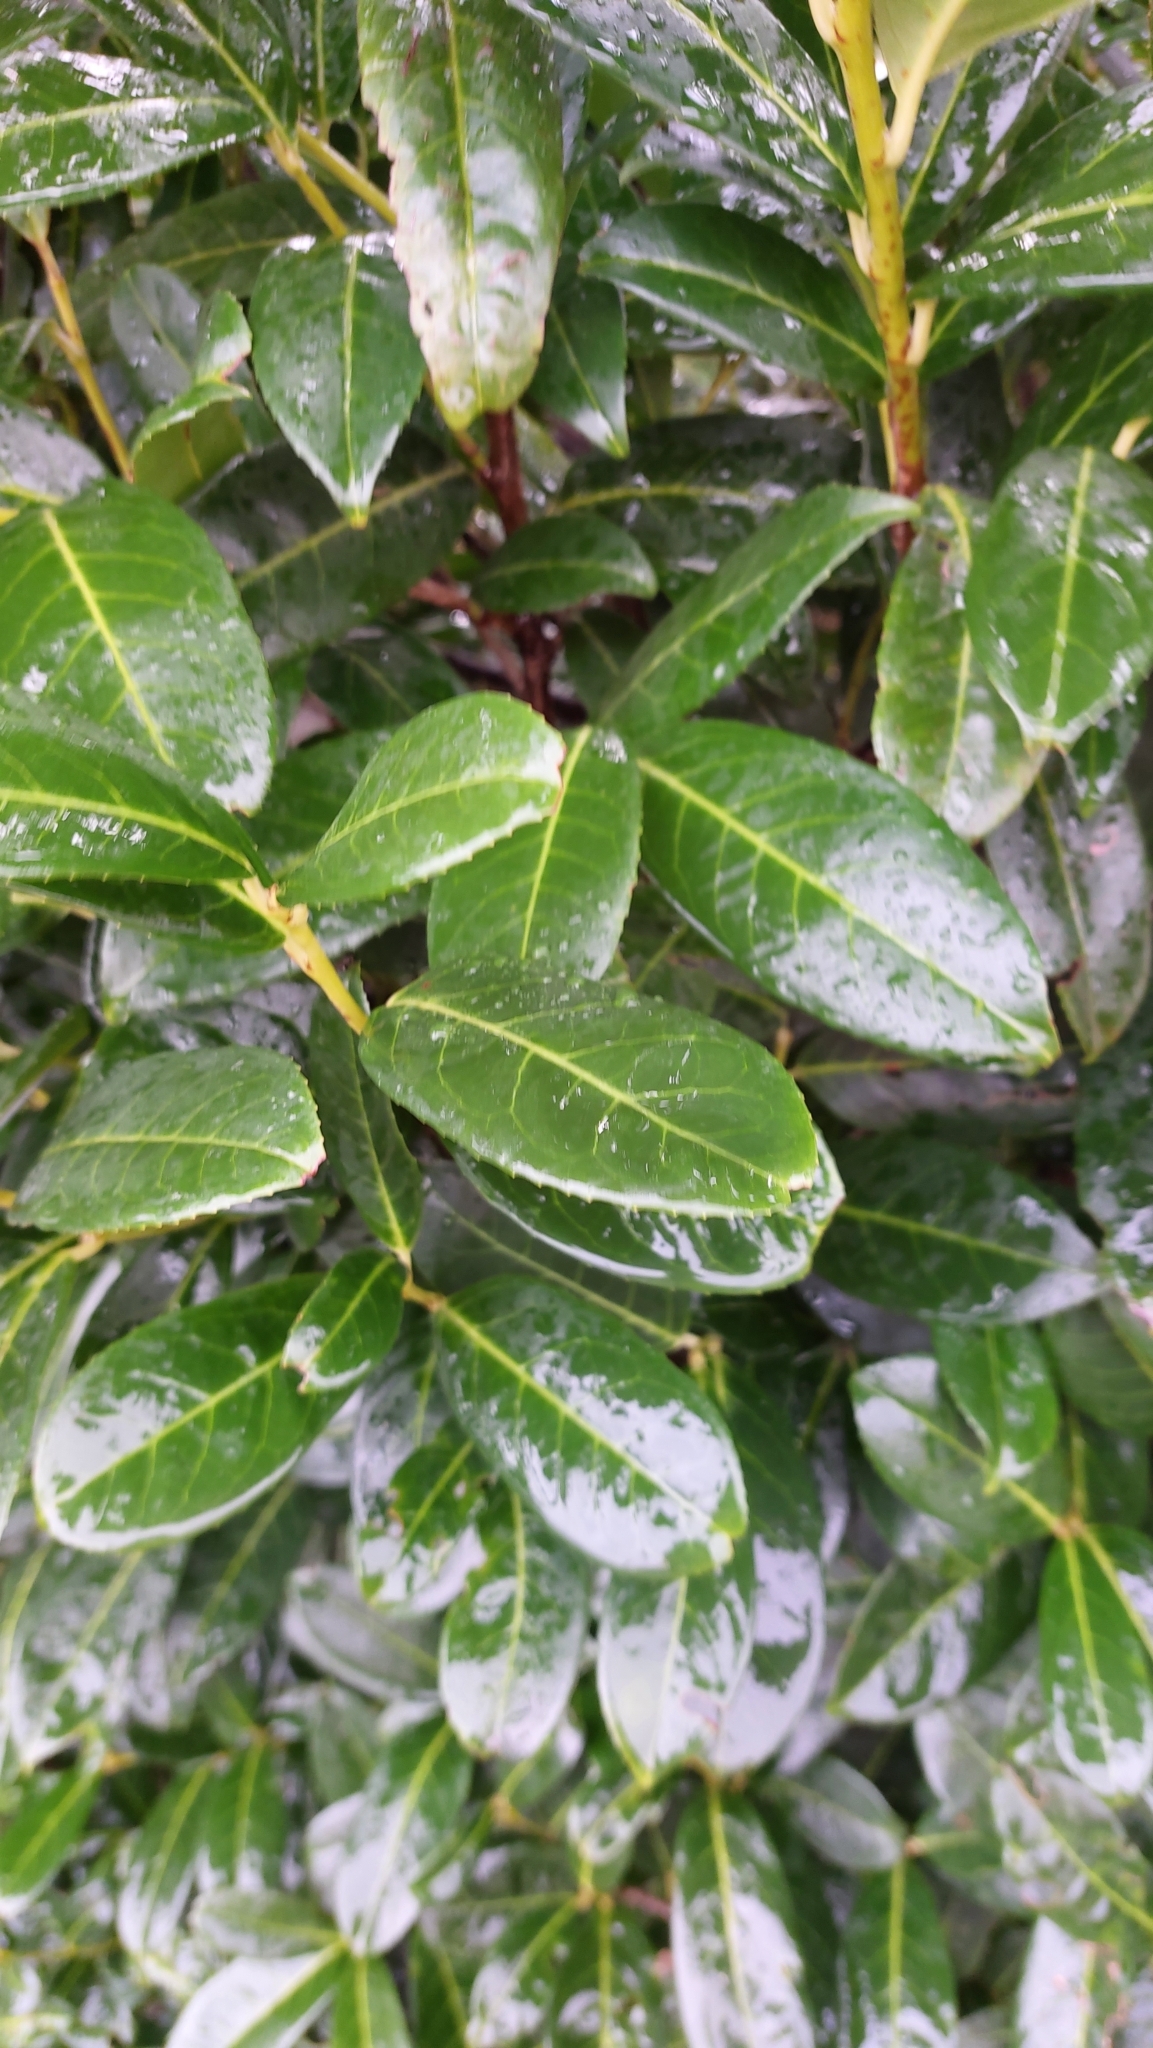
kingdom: Plantae
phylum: Tracheophyta
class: Magnoliopsida
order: Rosales
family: Rosaceae
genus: Prunus
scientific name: Prunus laurocerasus
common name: Cherry laurel
